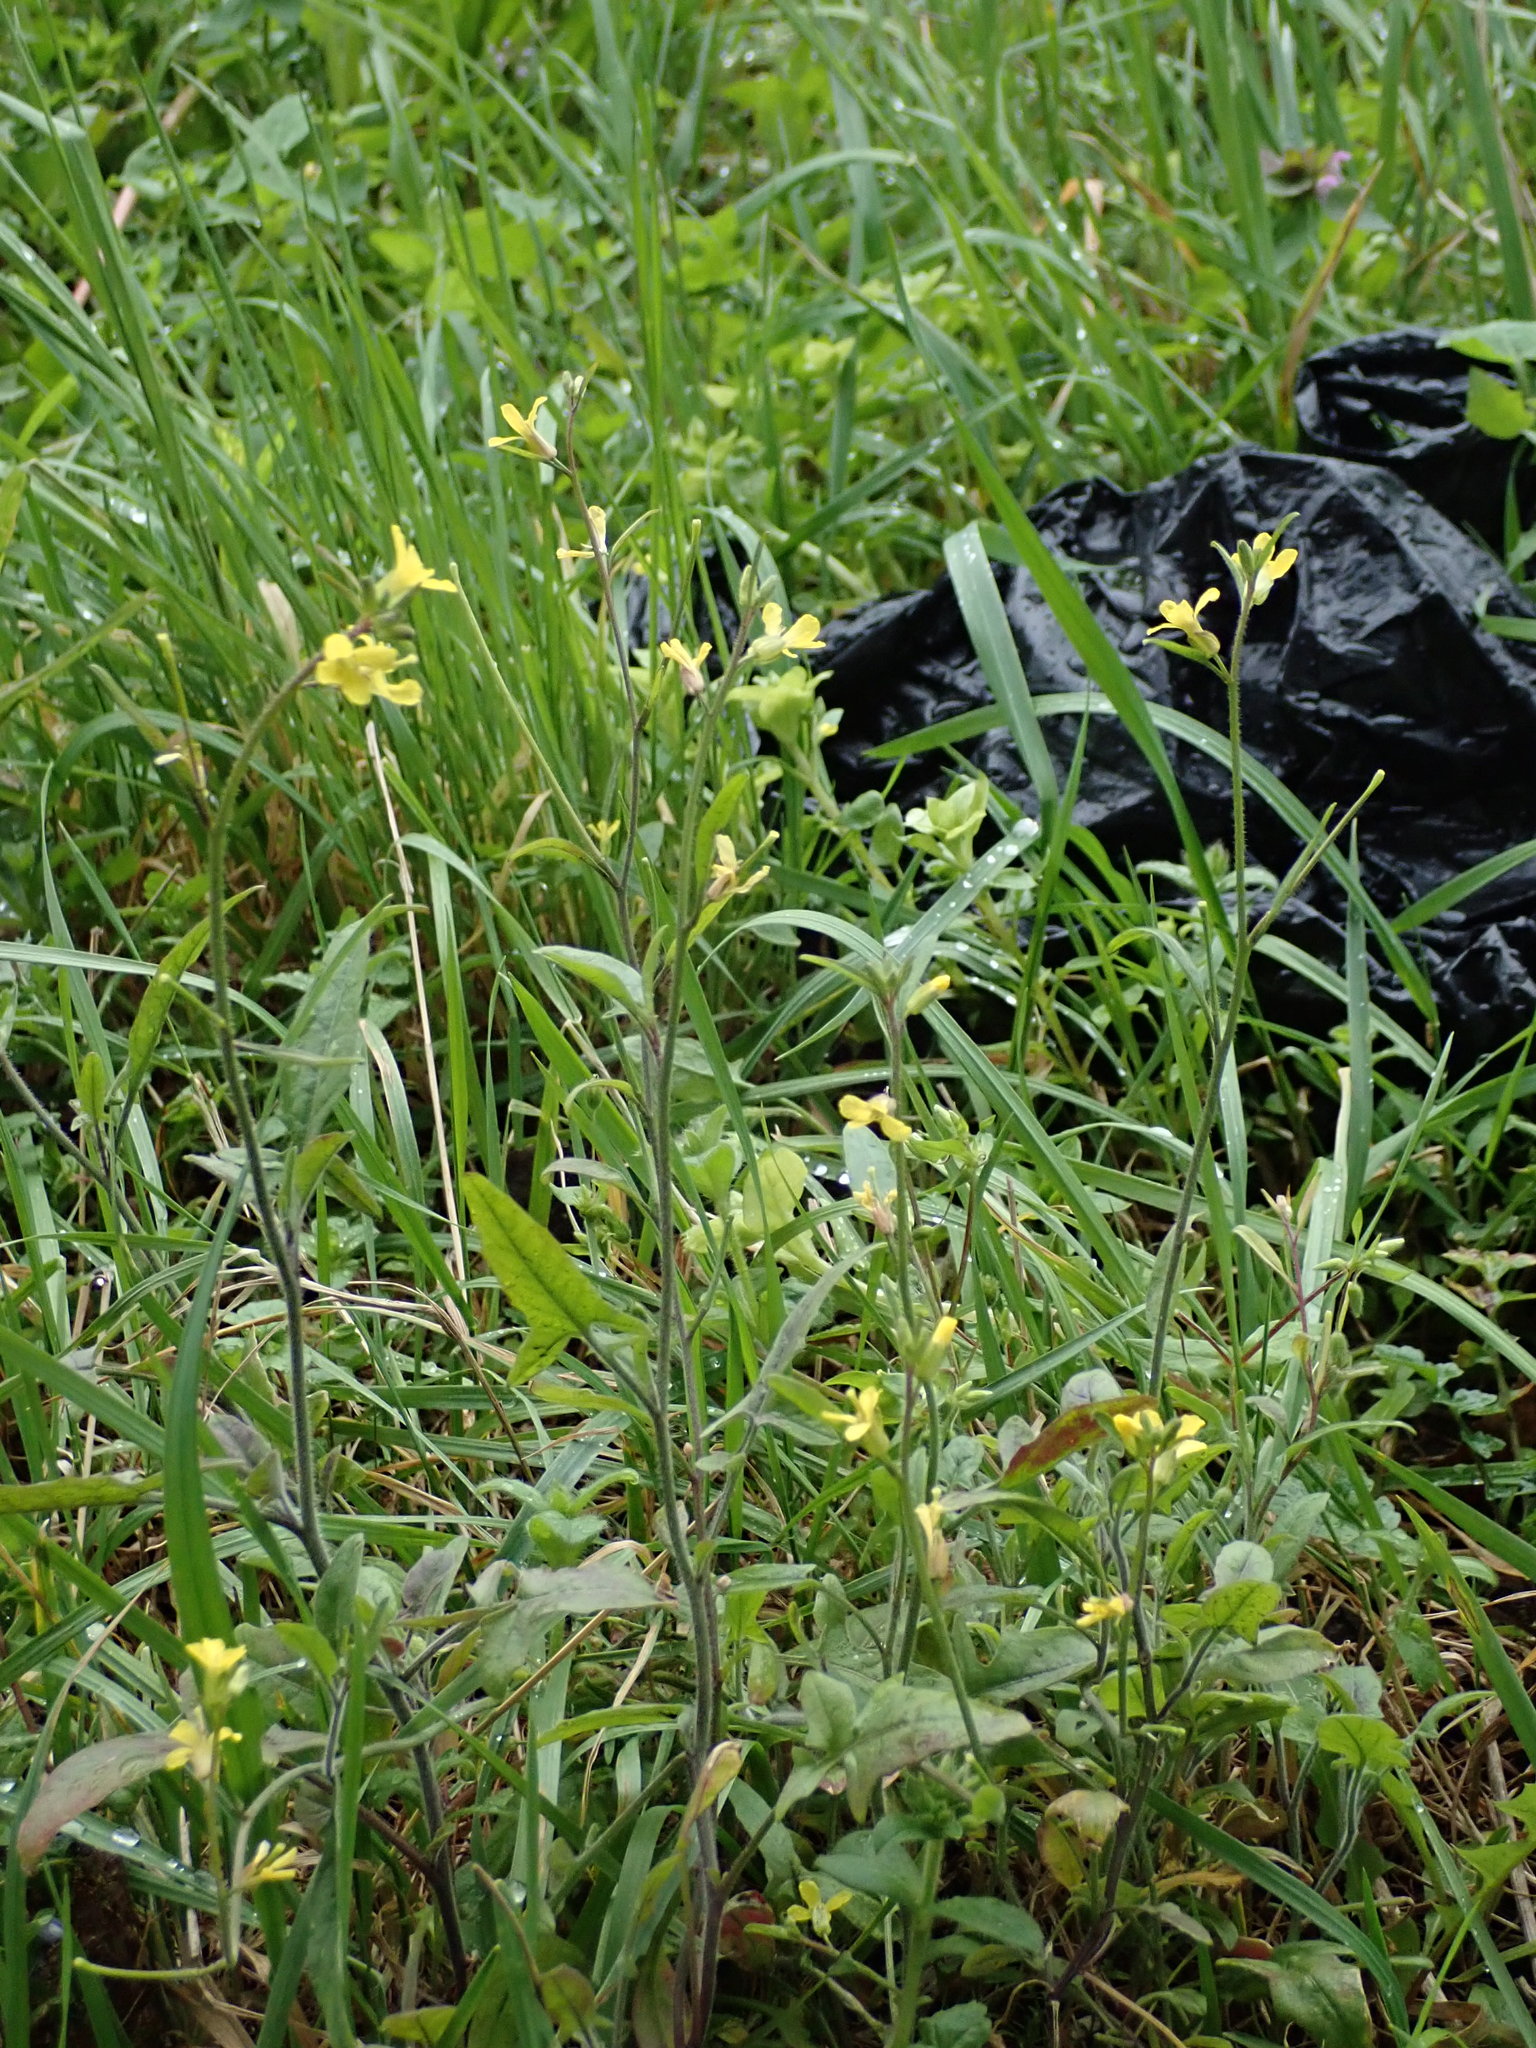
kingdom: Plantae
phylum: Tracheophyta
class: Magnoliopsida
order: Brassicales
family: Brassicaceae
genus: Sisymbrium
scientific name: Sisymbrium orientale
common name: Eastern rocket
